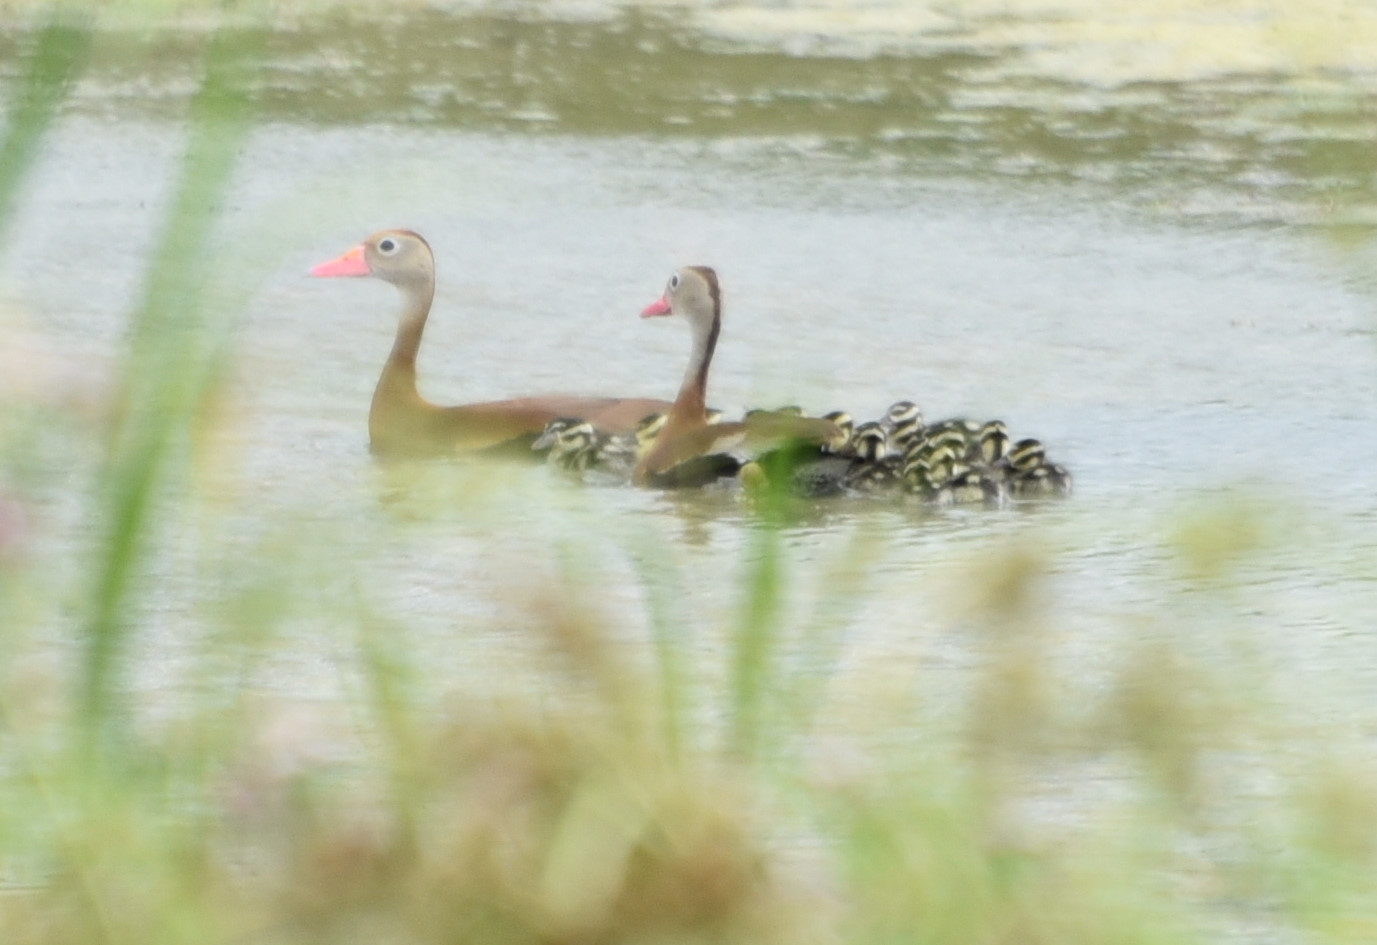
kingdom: Animalia
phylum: Chordata
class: Aves
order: Anseriformes
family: Anatidae
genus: Dendrocygna
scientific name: Dendrocygna autumnalis
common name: Black-bellied whistling duck
